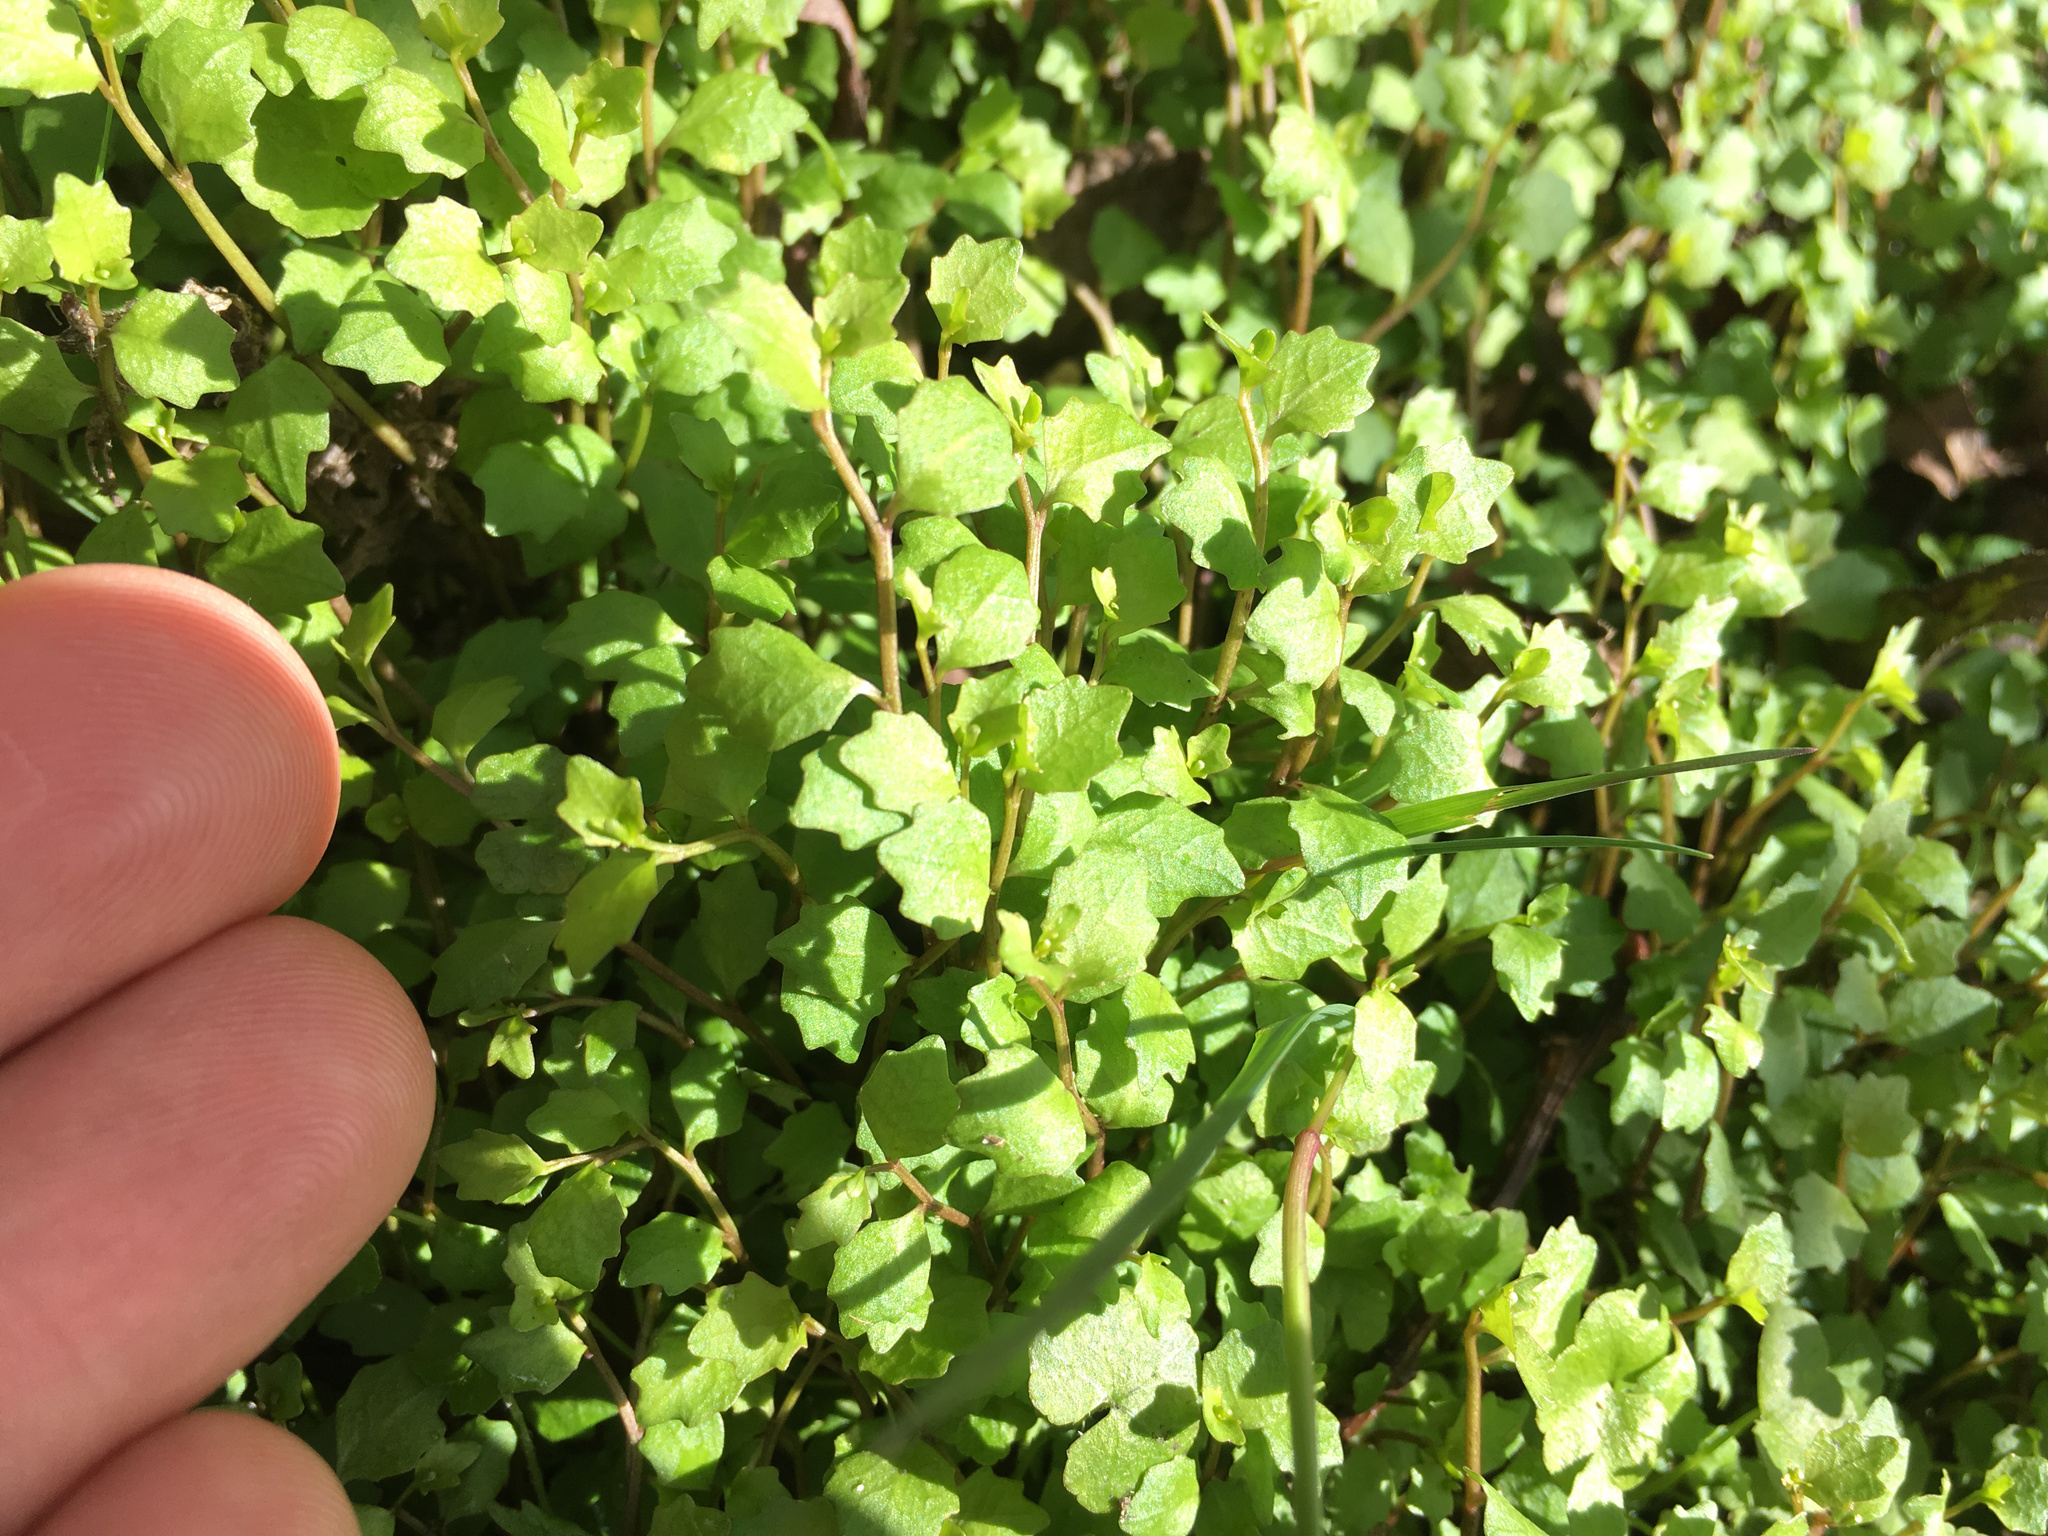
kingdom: Plantae
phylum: Tracheophyta
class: Magnoliopsida
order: Asterales
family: Campanulaceae
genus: Lobelia
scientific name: Lobelia angulata
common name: Lawn lobelia
